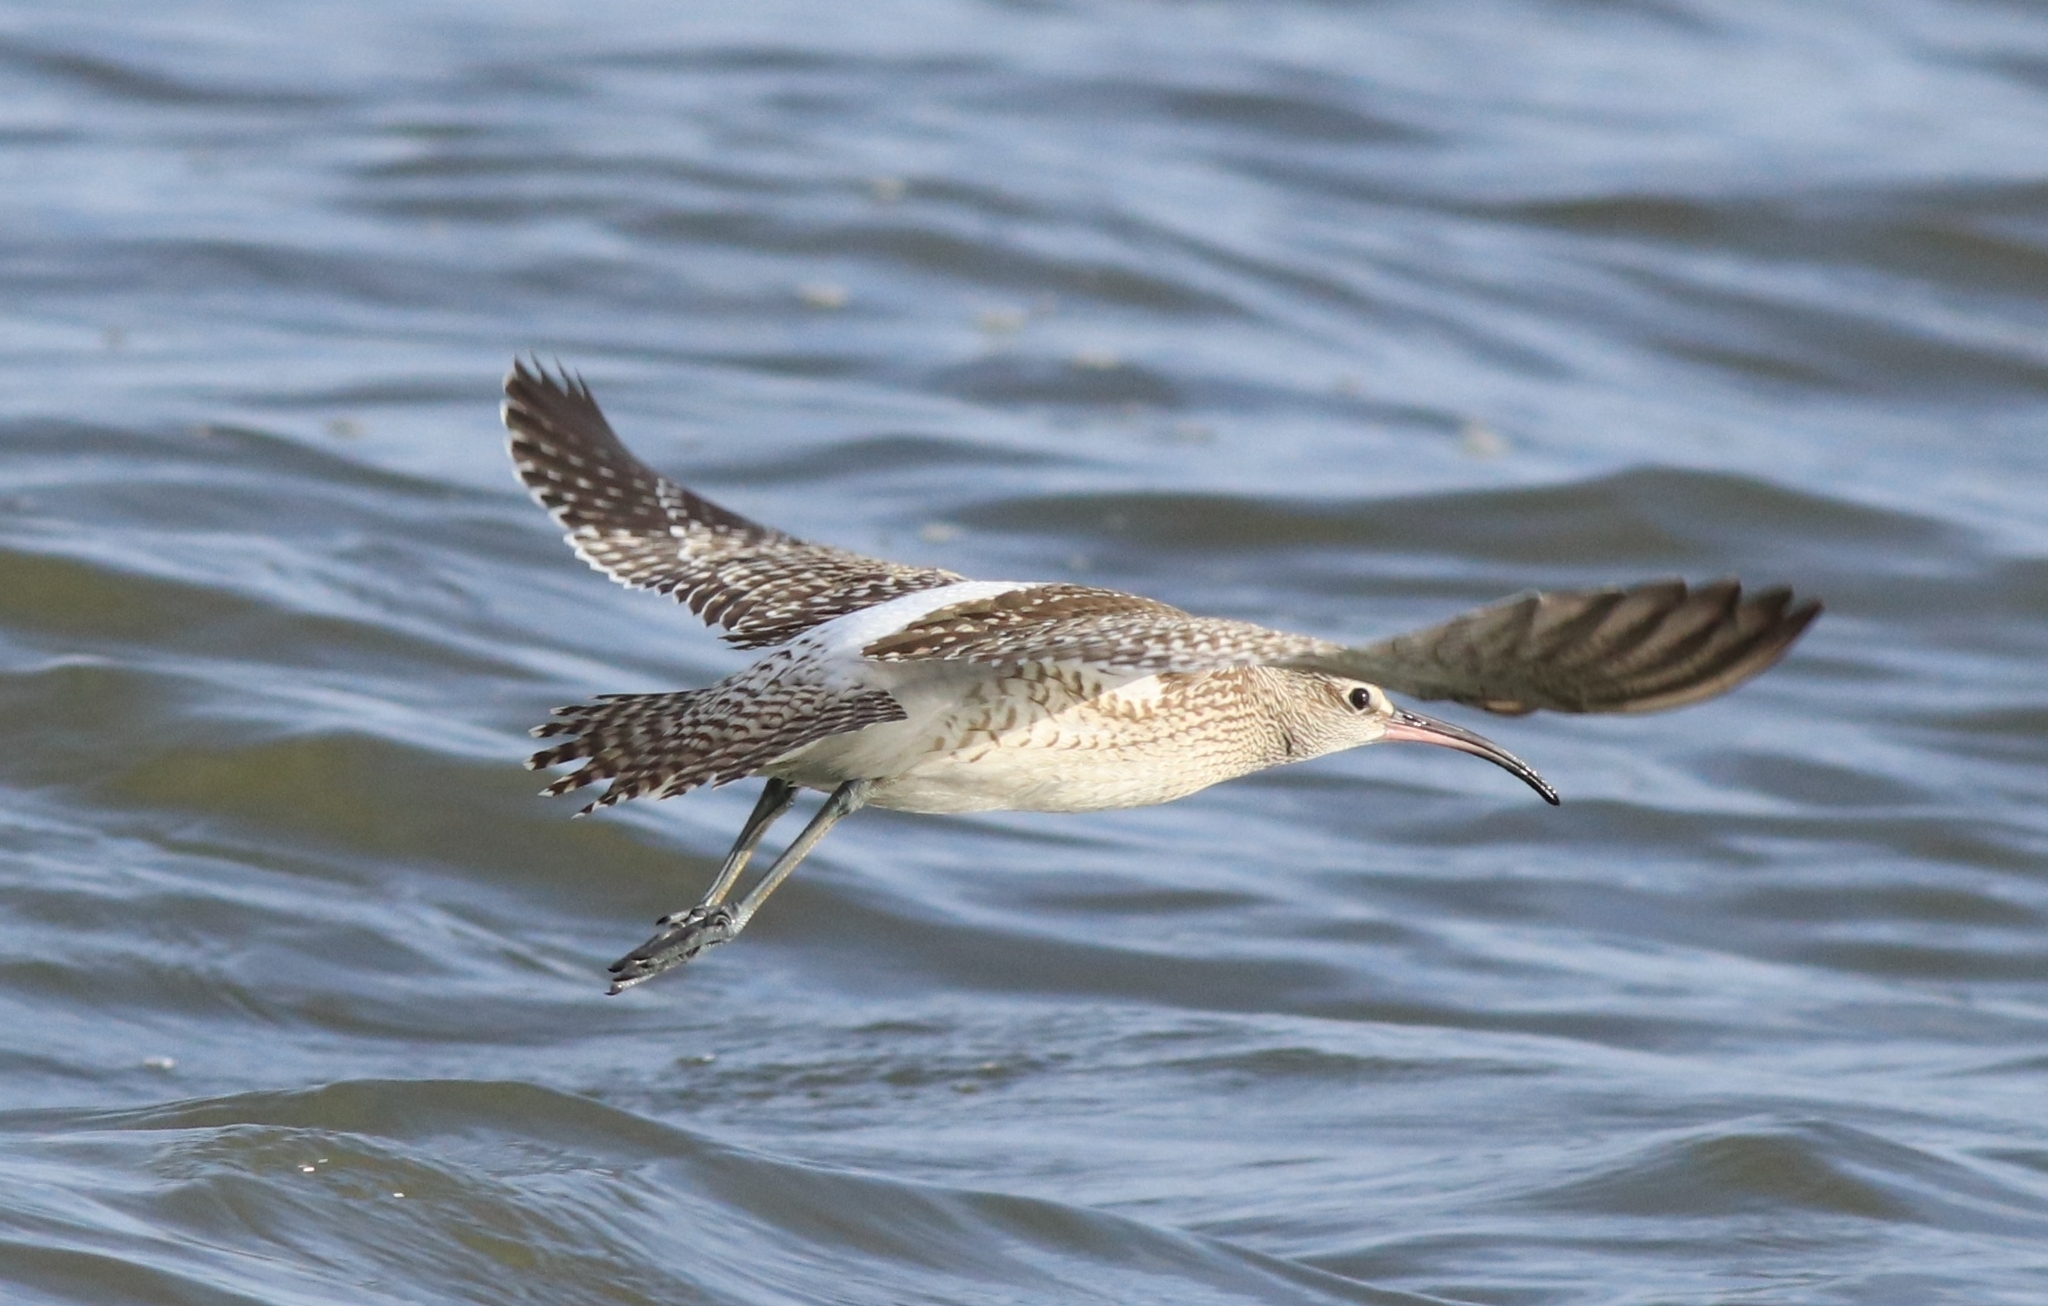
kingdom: Animalia
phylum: Chordata
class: Aves
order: Charadriiformes
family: Scolopacidae
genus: Numenius
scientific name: Numenius phaeopus
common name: Whimbrel
